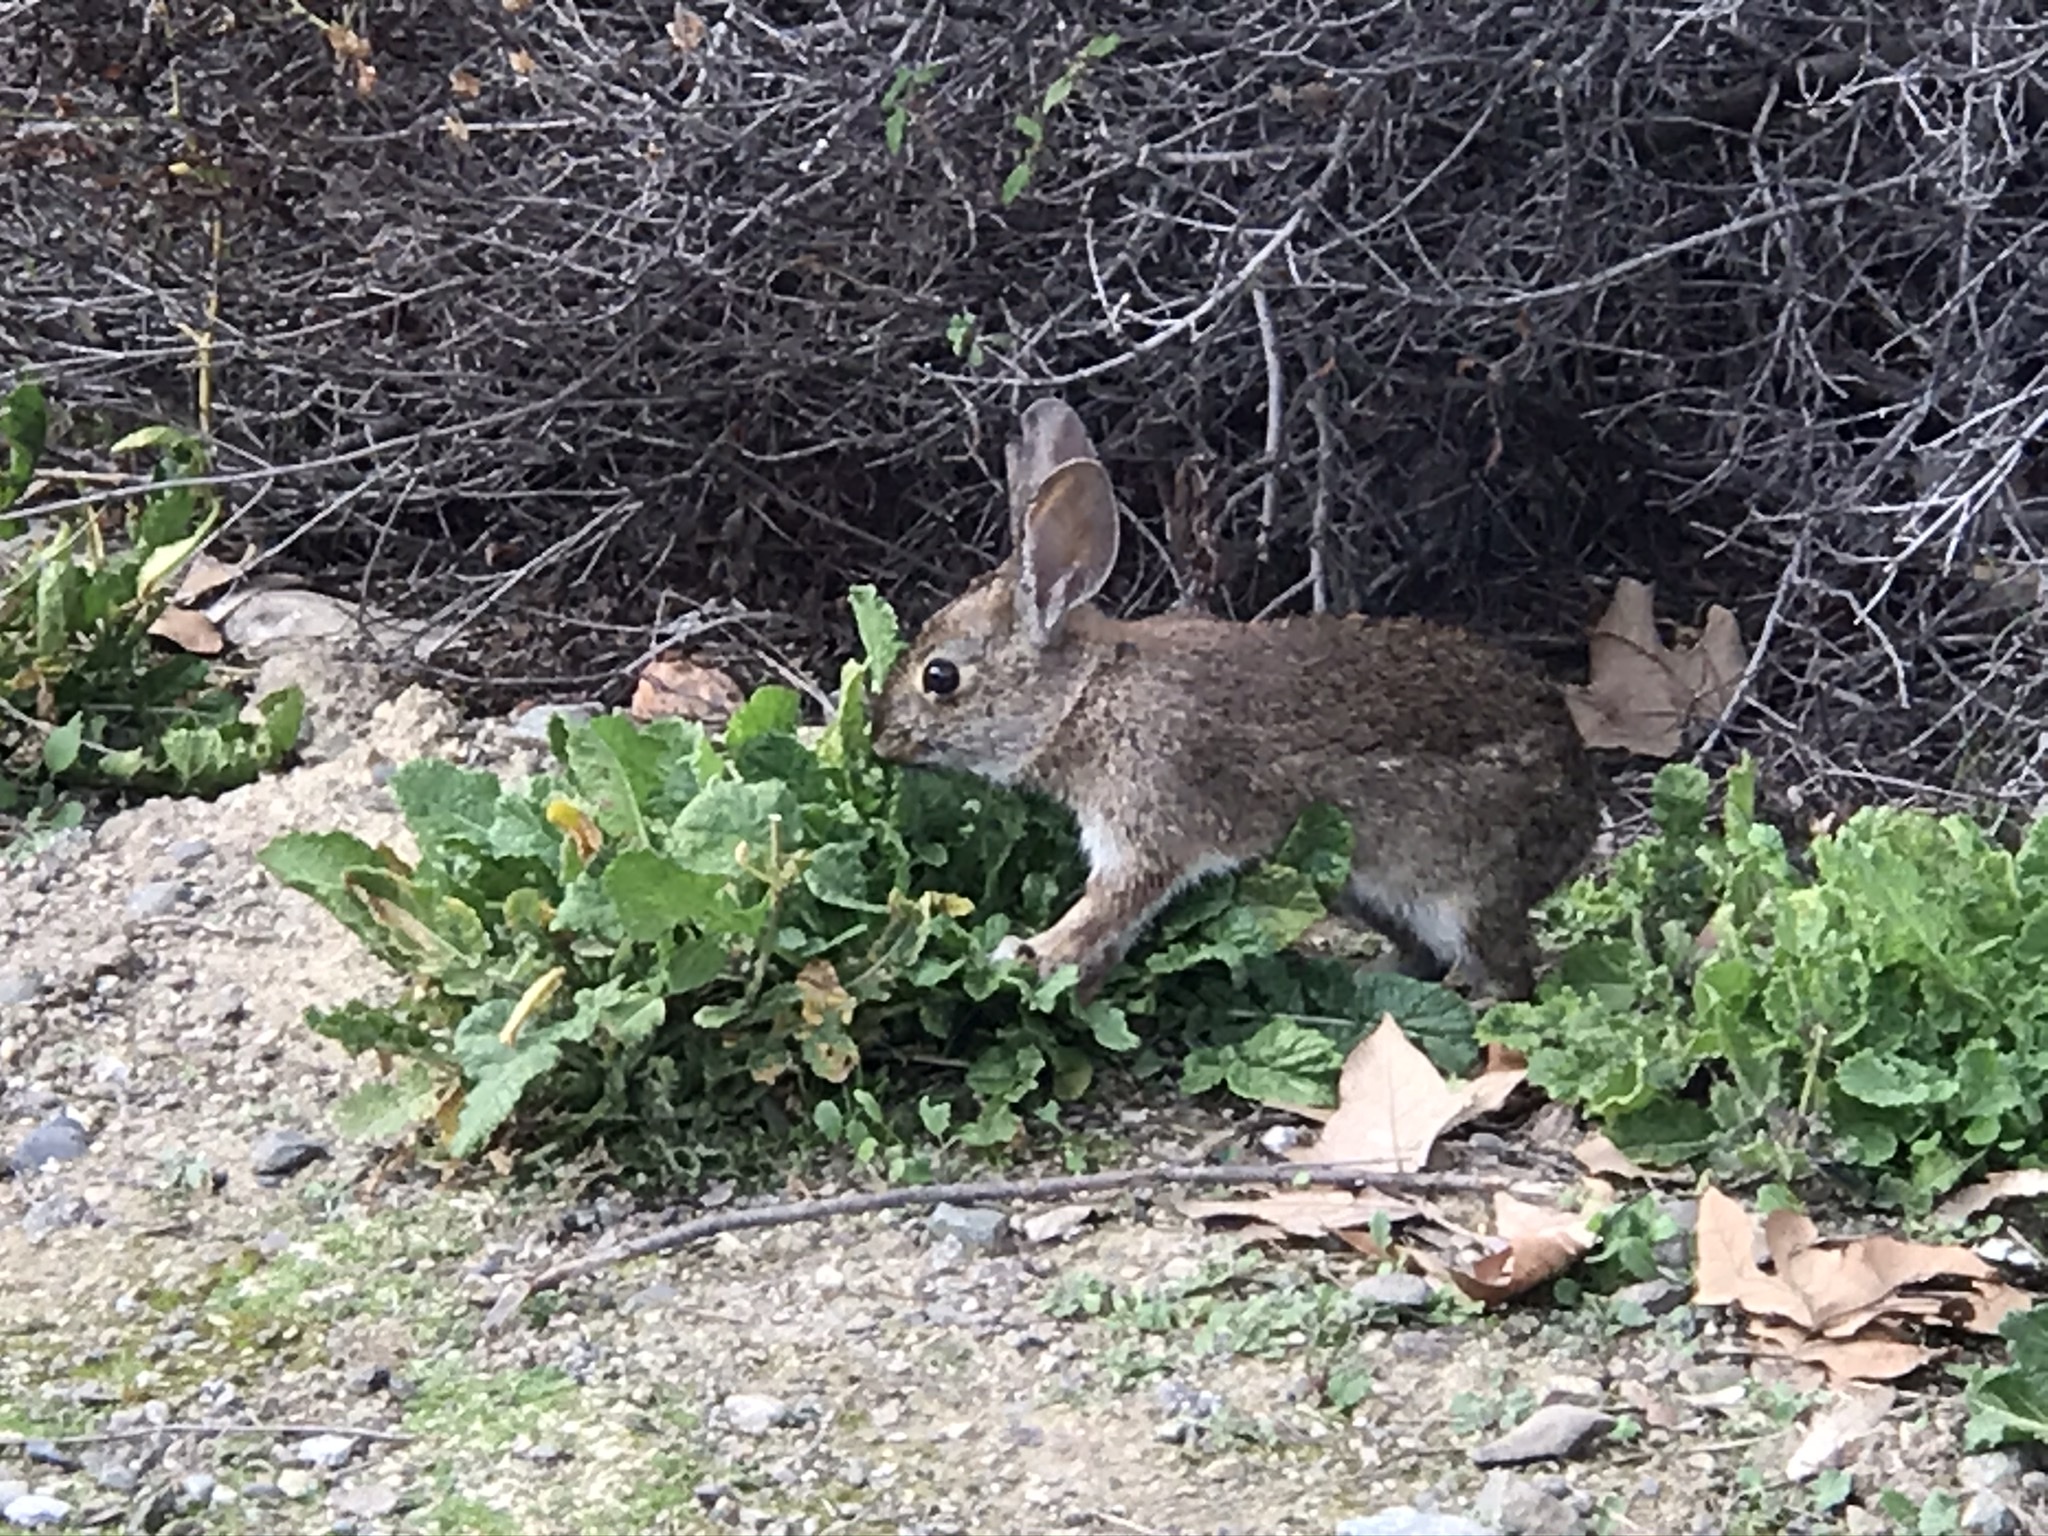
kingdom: Animalia
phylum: Chordata
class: Mammalia
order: Lagomorpha
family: Leporidae
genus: Sylvilagus
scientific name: Sylvilagus bachmani
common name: Brush rabbit
